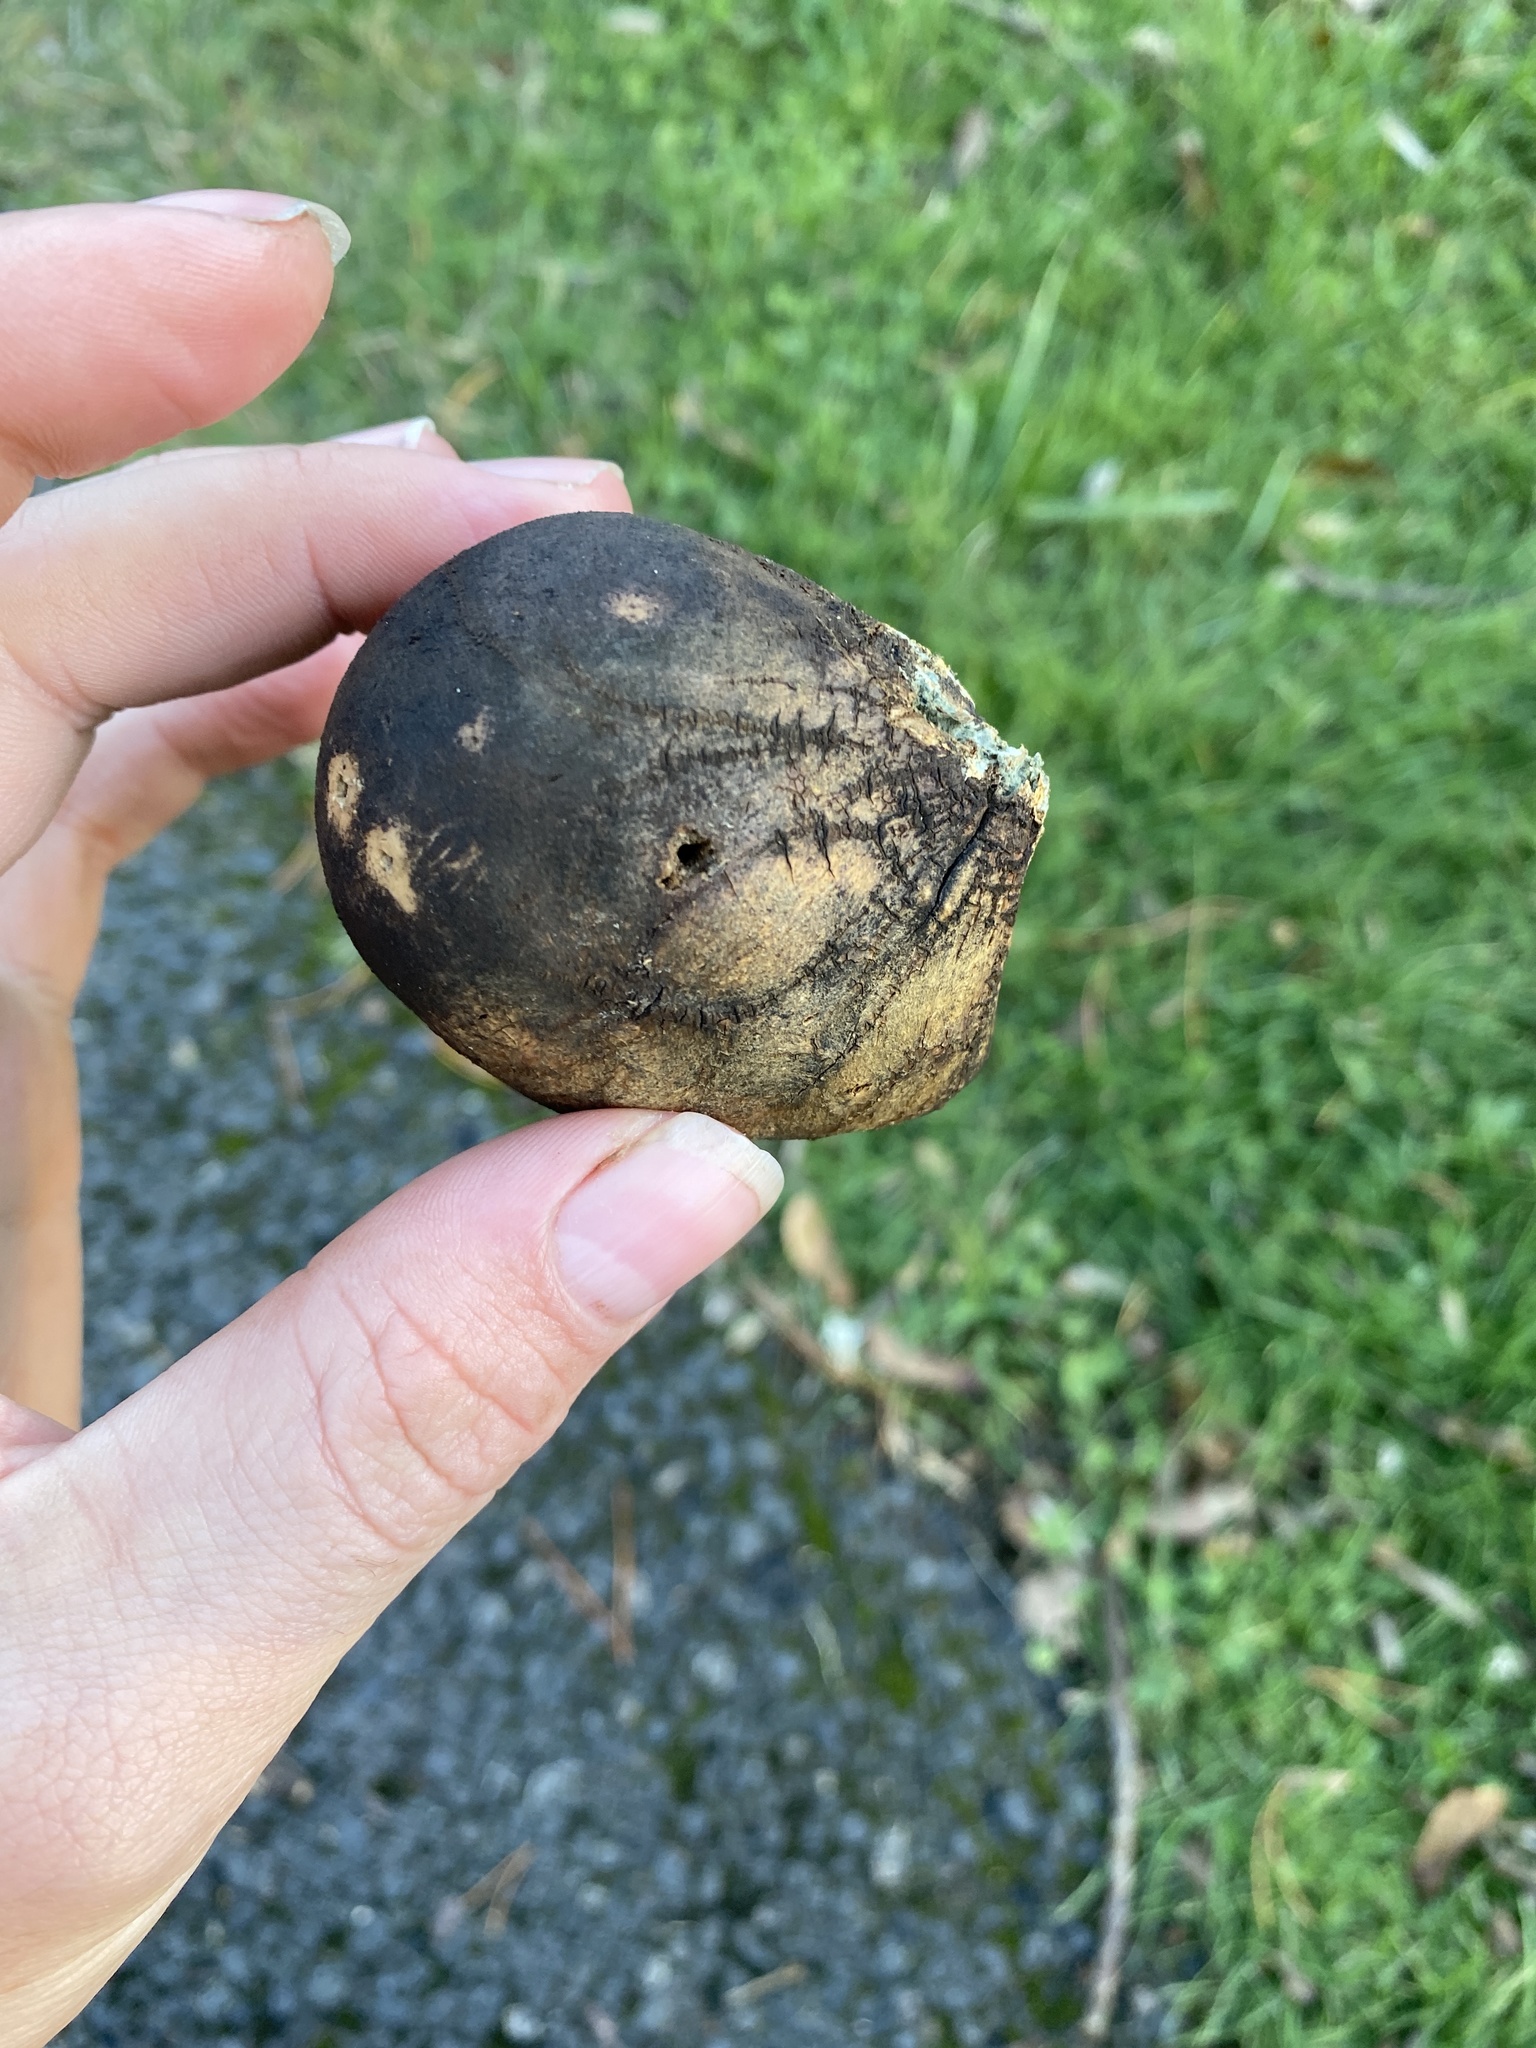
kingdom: Animalia
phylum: Arthropoda
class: Insecta
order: Hymenoptera
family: Cynipidae
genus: Andricus
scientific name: Andricus quercuscalifornicus
